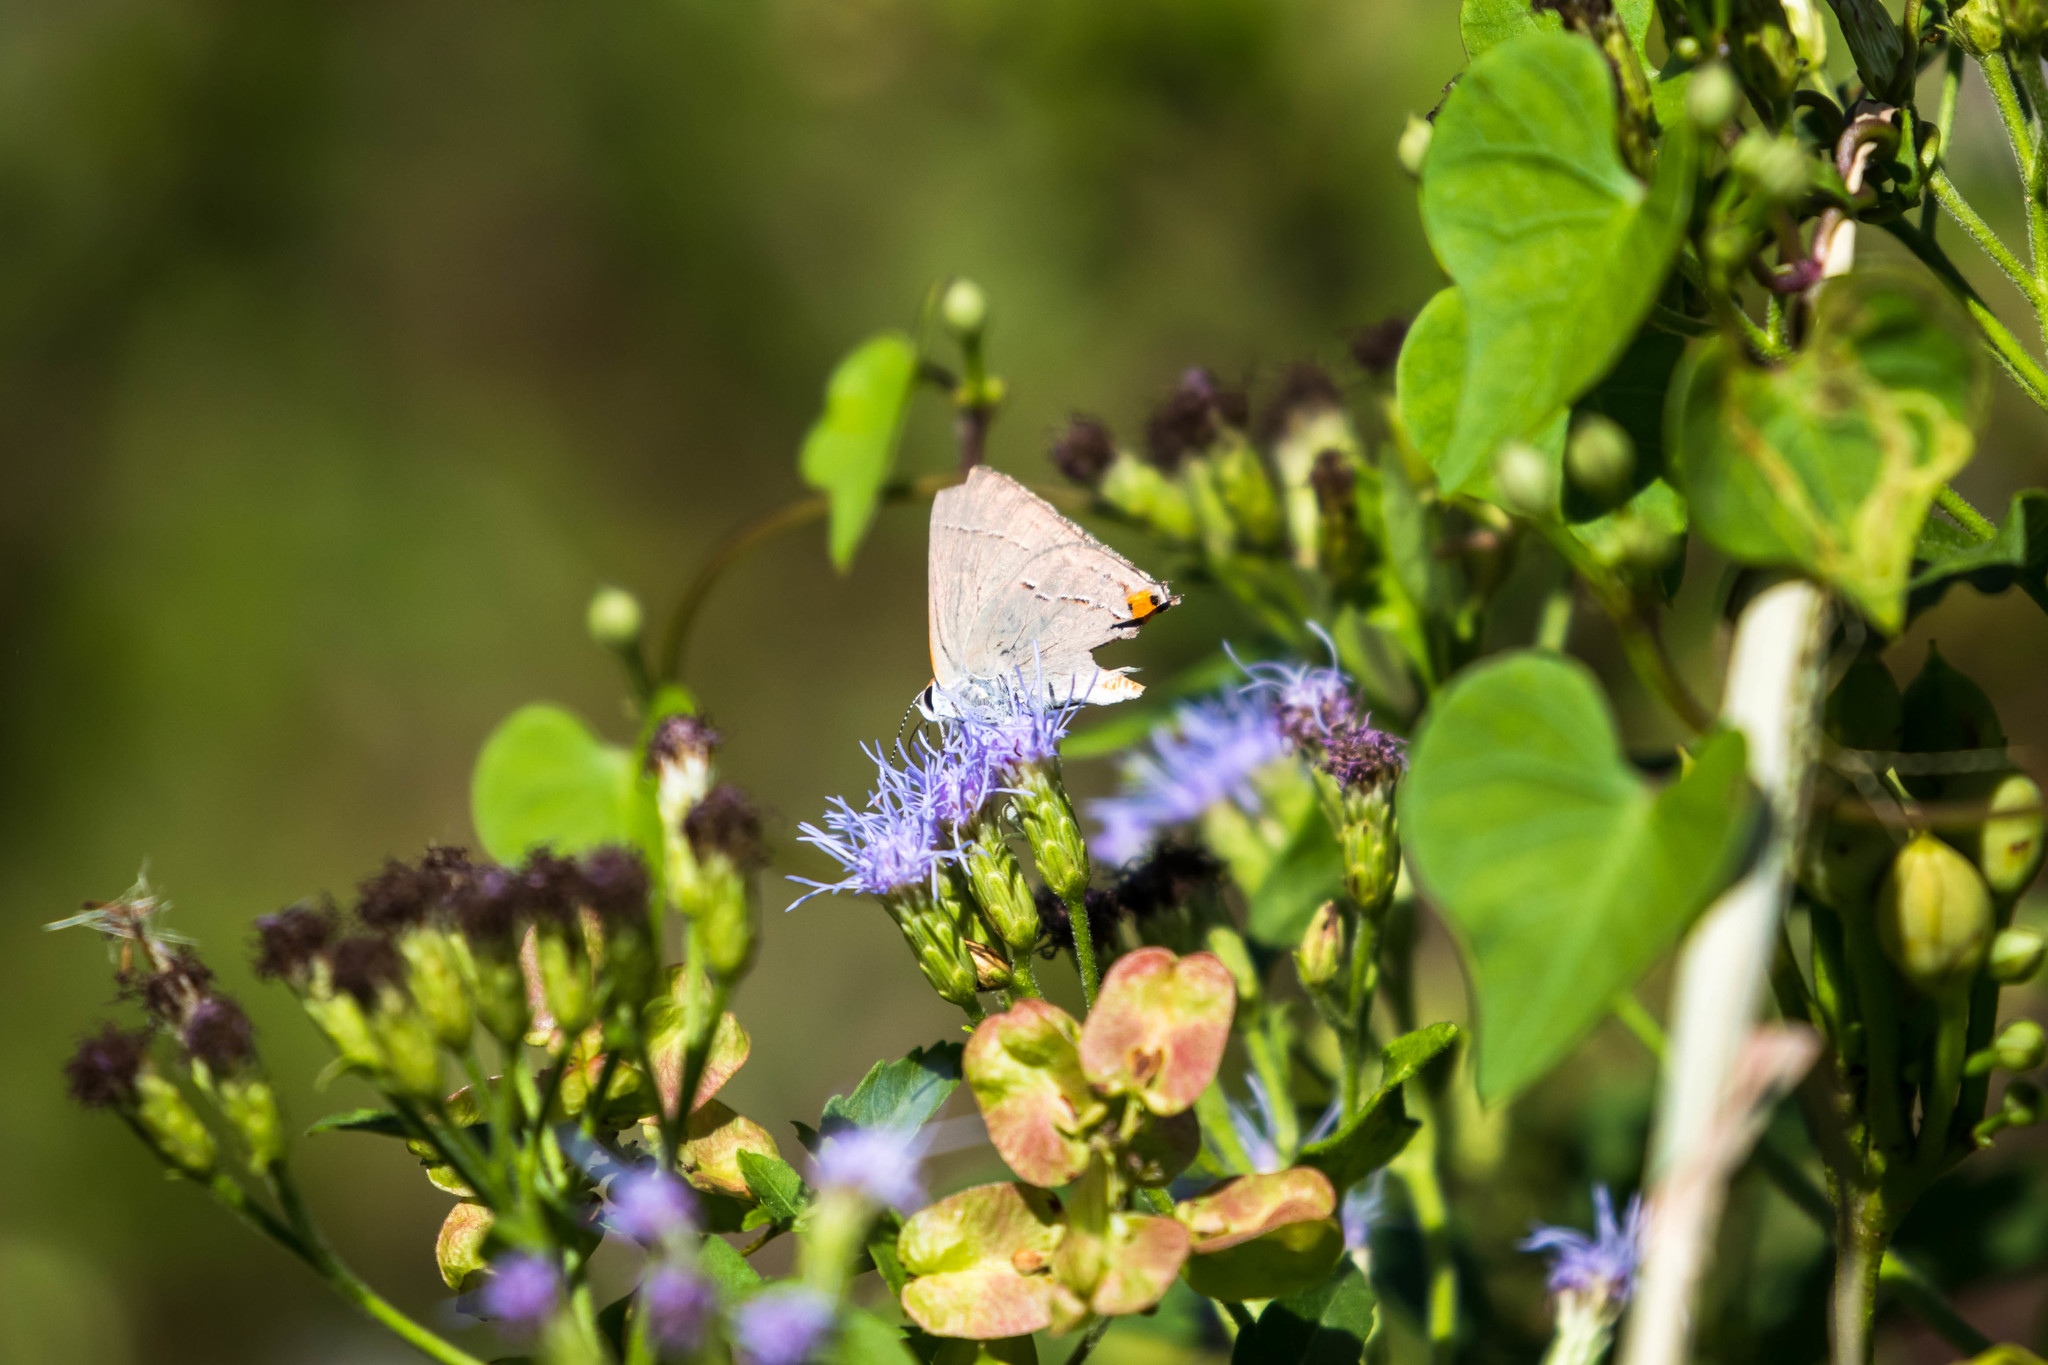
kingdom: Animalia
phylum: Arthropoda
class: Insecta
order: Lepidoptera
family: Lycaenidae
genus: Strymon
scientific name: Strymon melinus
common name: Gray hairstreak
